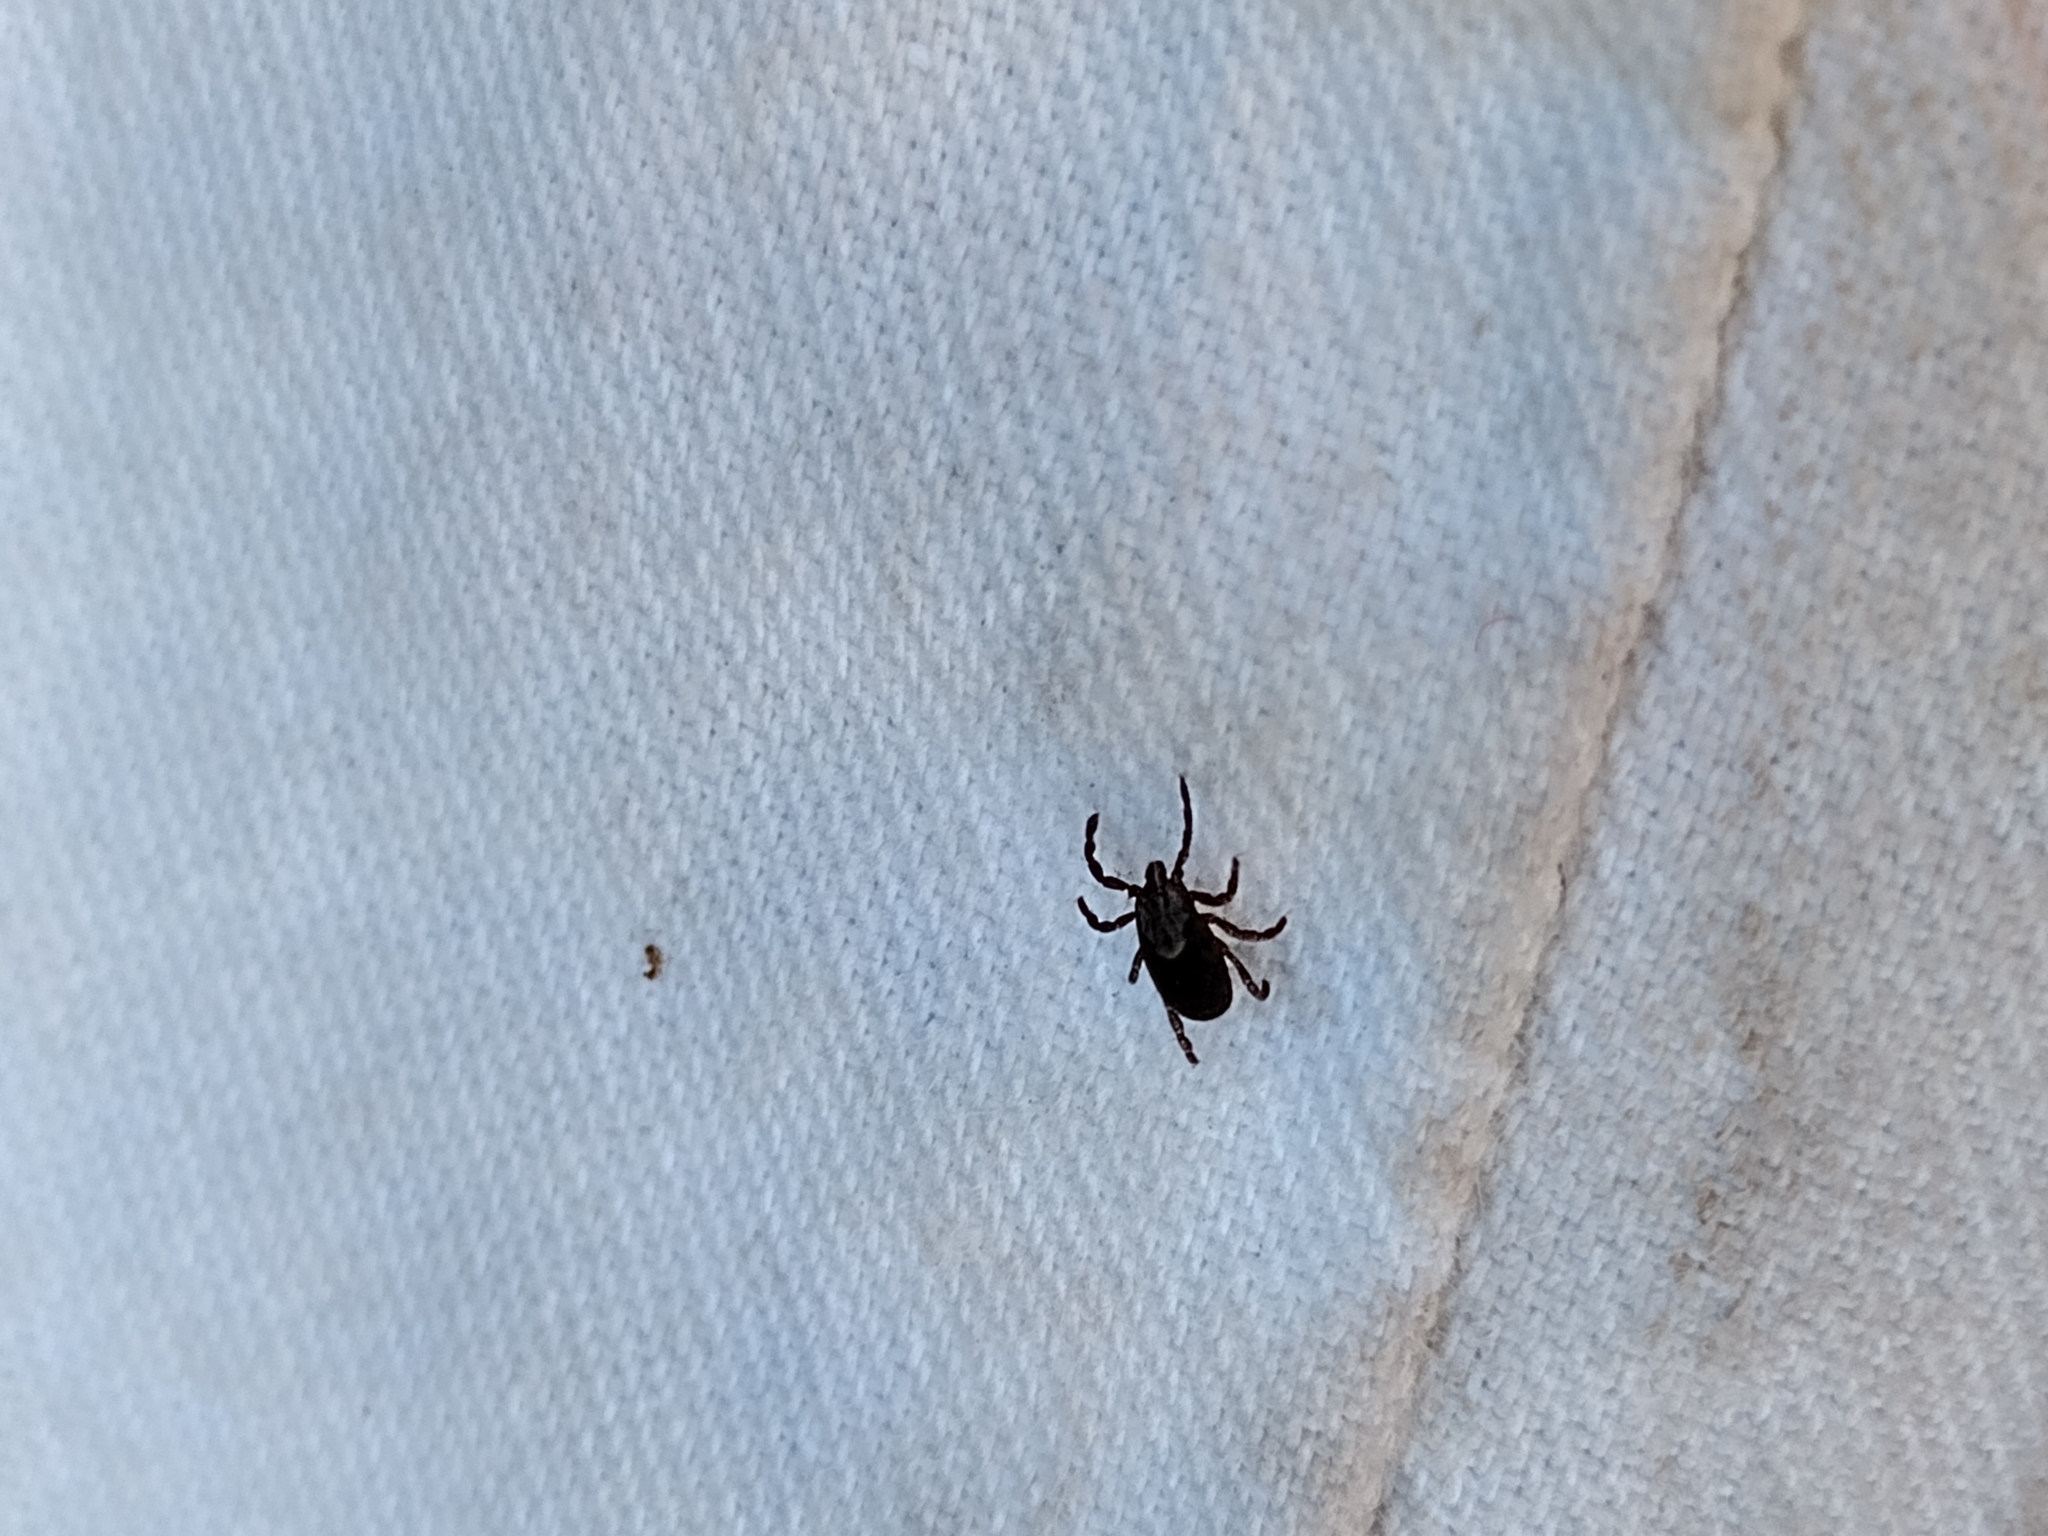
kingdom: Animalia
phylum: Arthropoda
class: Arachnida
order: Ixodida
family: Ixodidae
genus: Dermacentor
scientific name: Dermacentor occidentalis
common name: Net tick
